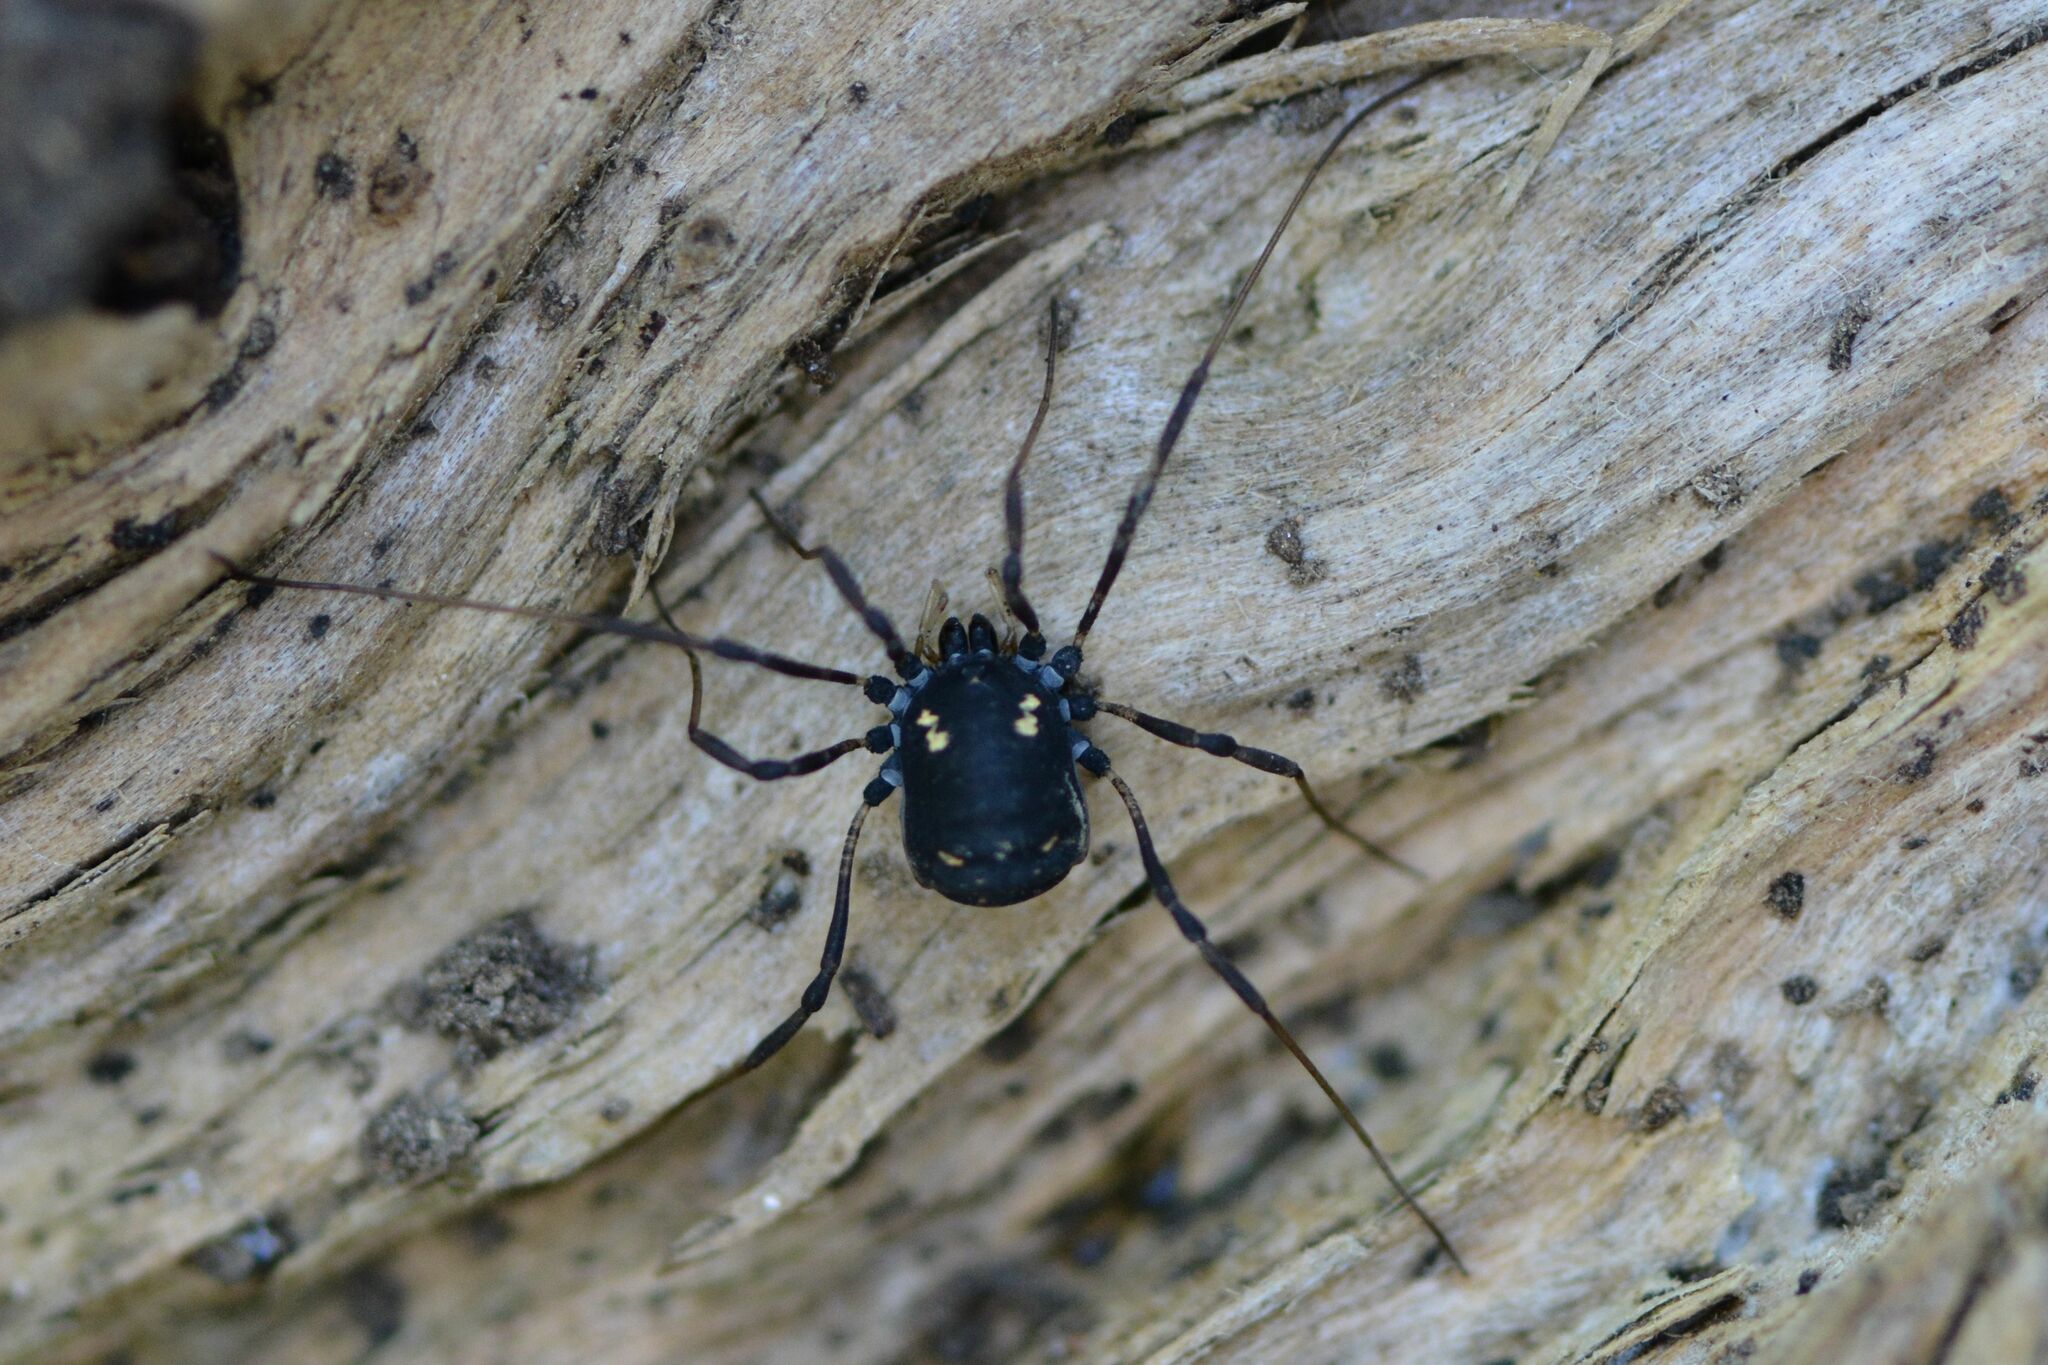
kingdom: Animalia
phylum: Arthropoda
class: Arachnida
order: Opiliones
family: Nemastomatidae
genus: Paranemastoma
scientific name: Paranemastoma quadripunctatum
